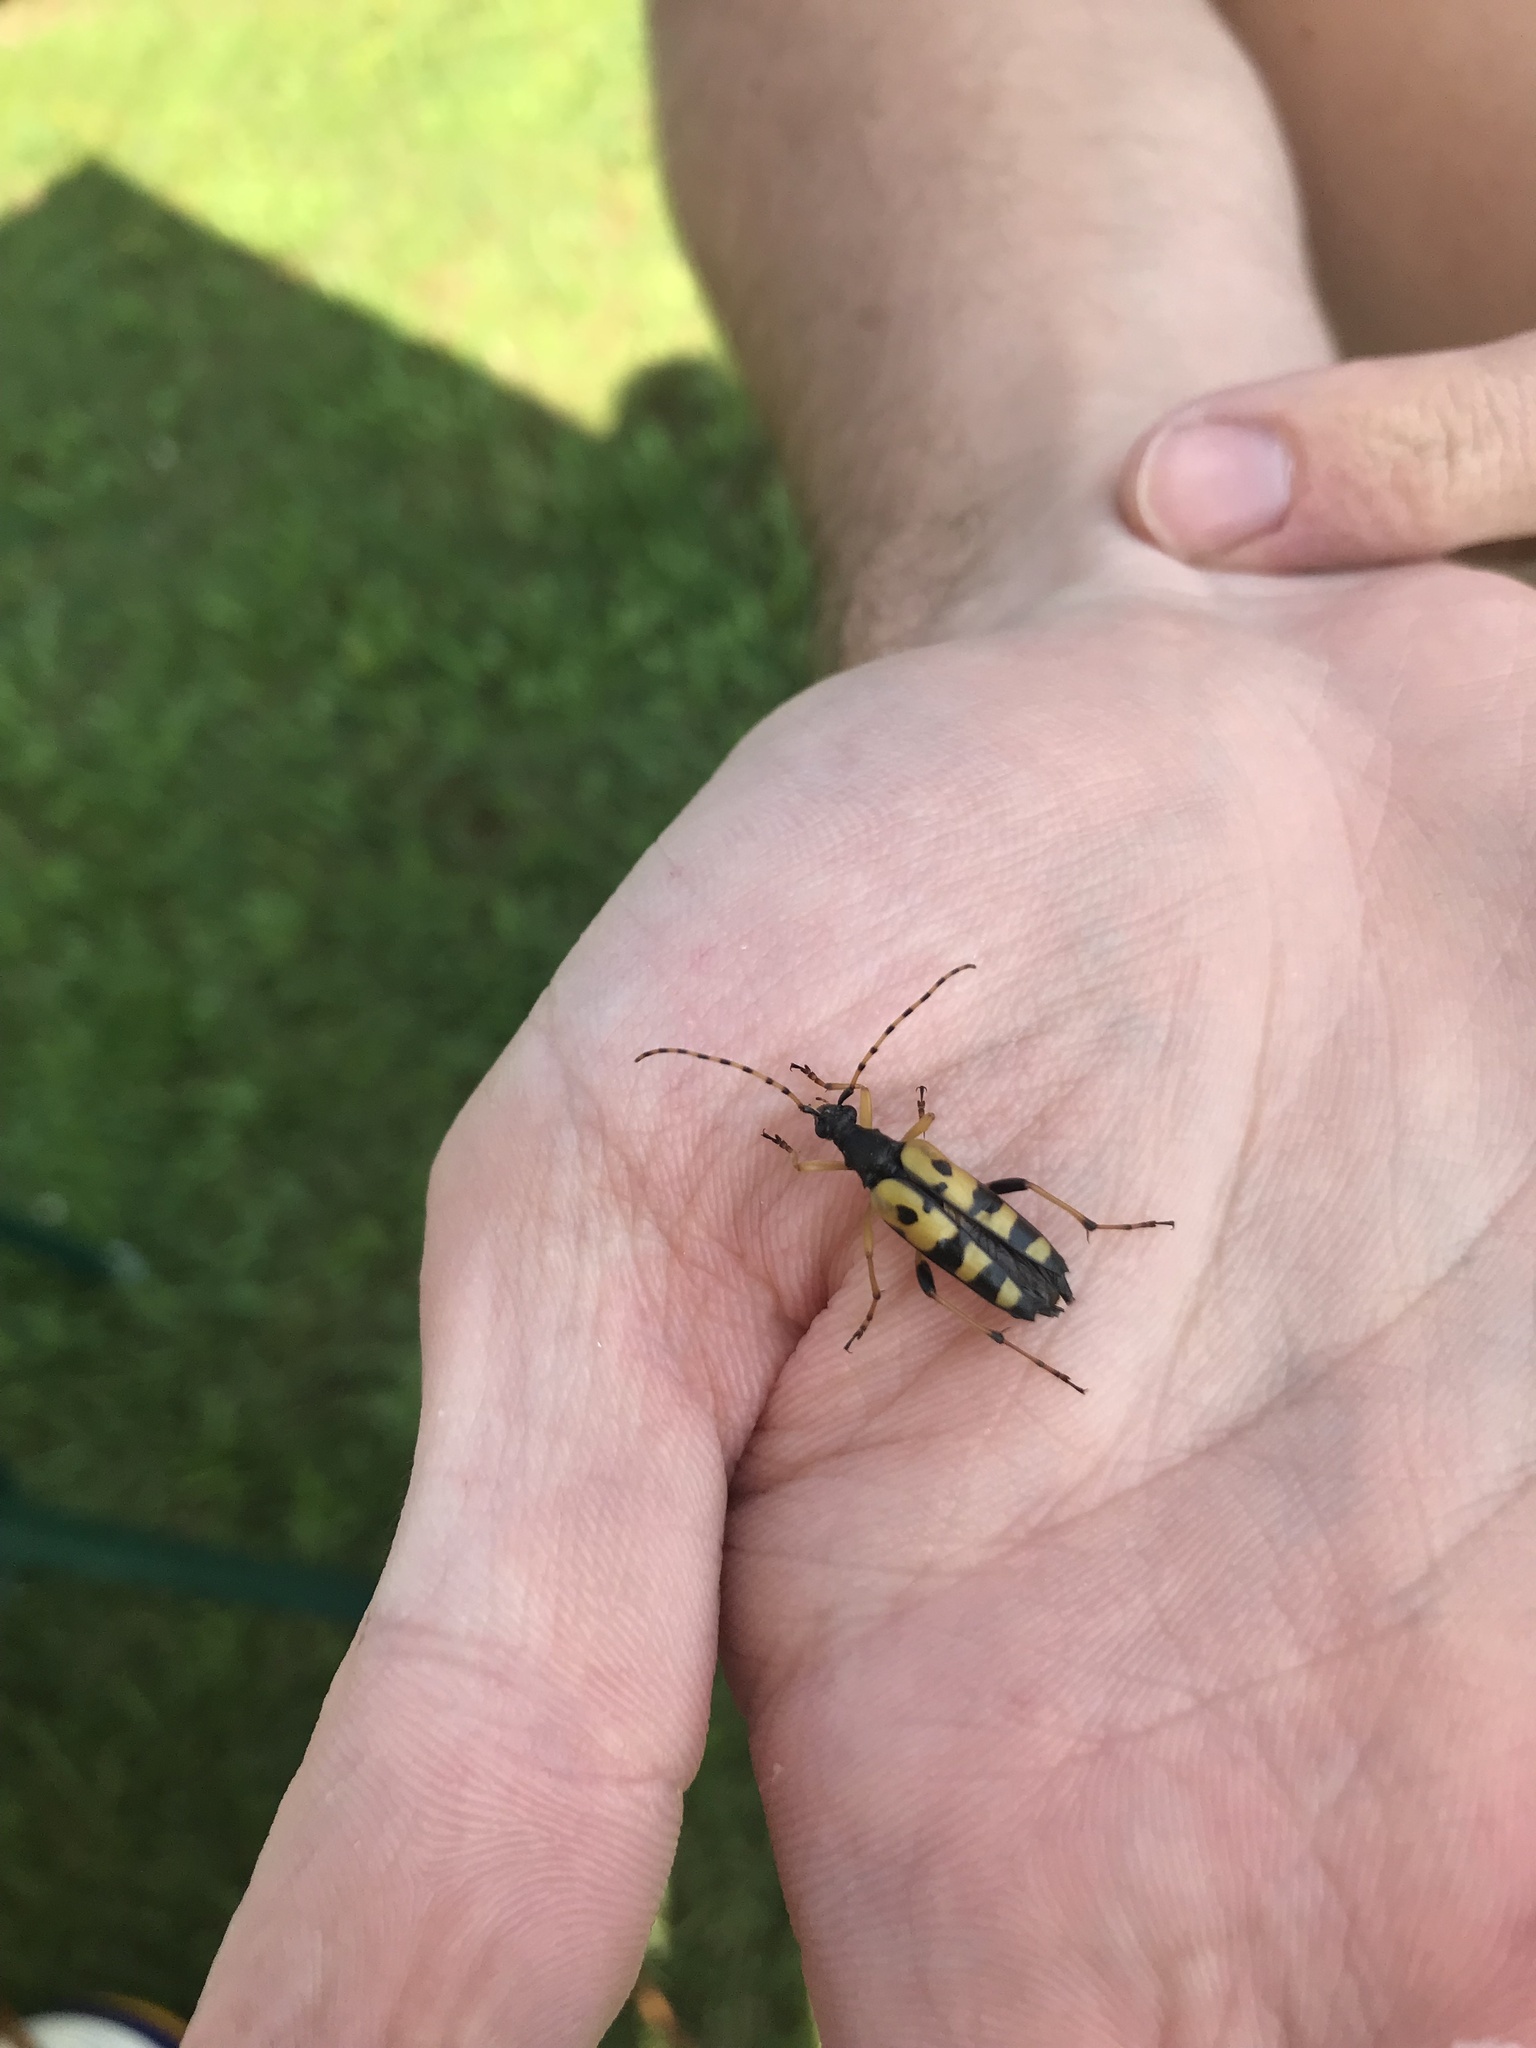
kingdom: Animalia
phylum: Arthropoda
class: Insecta
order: Coleoptera
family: Cerambycidae
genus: Rutpela
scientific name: Rutpela maculata
